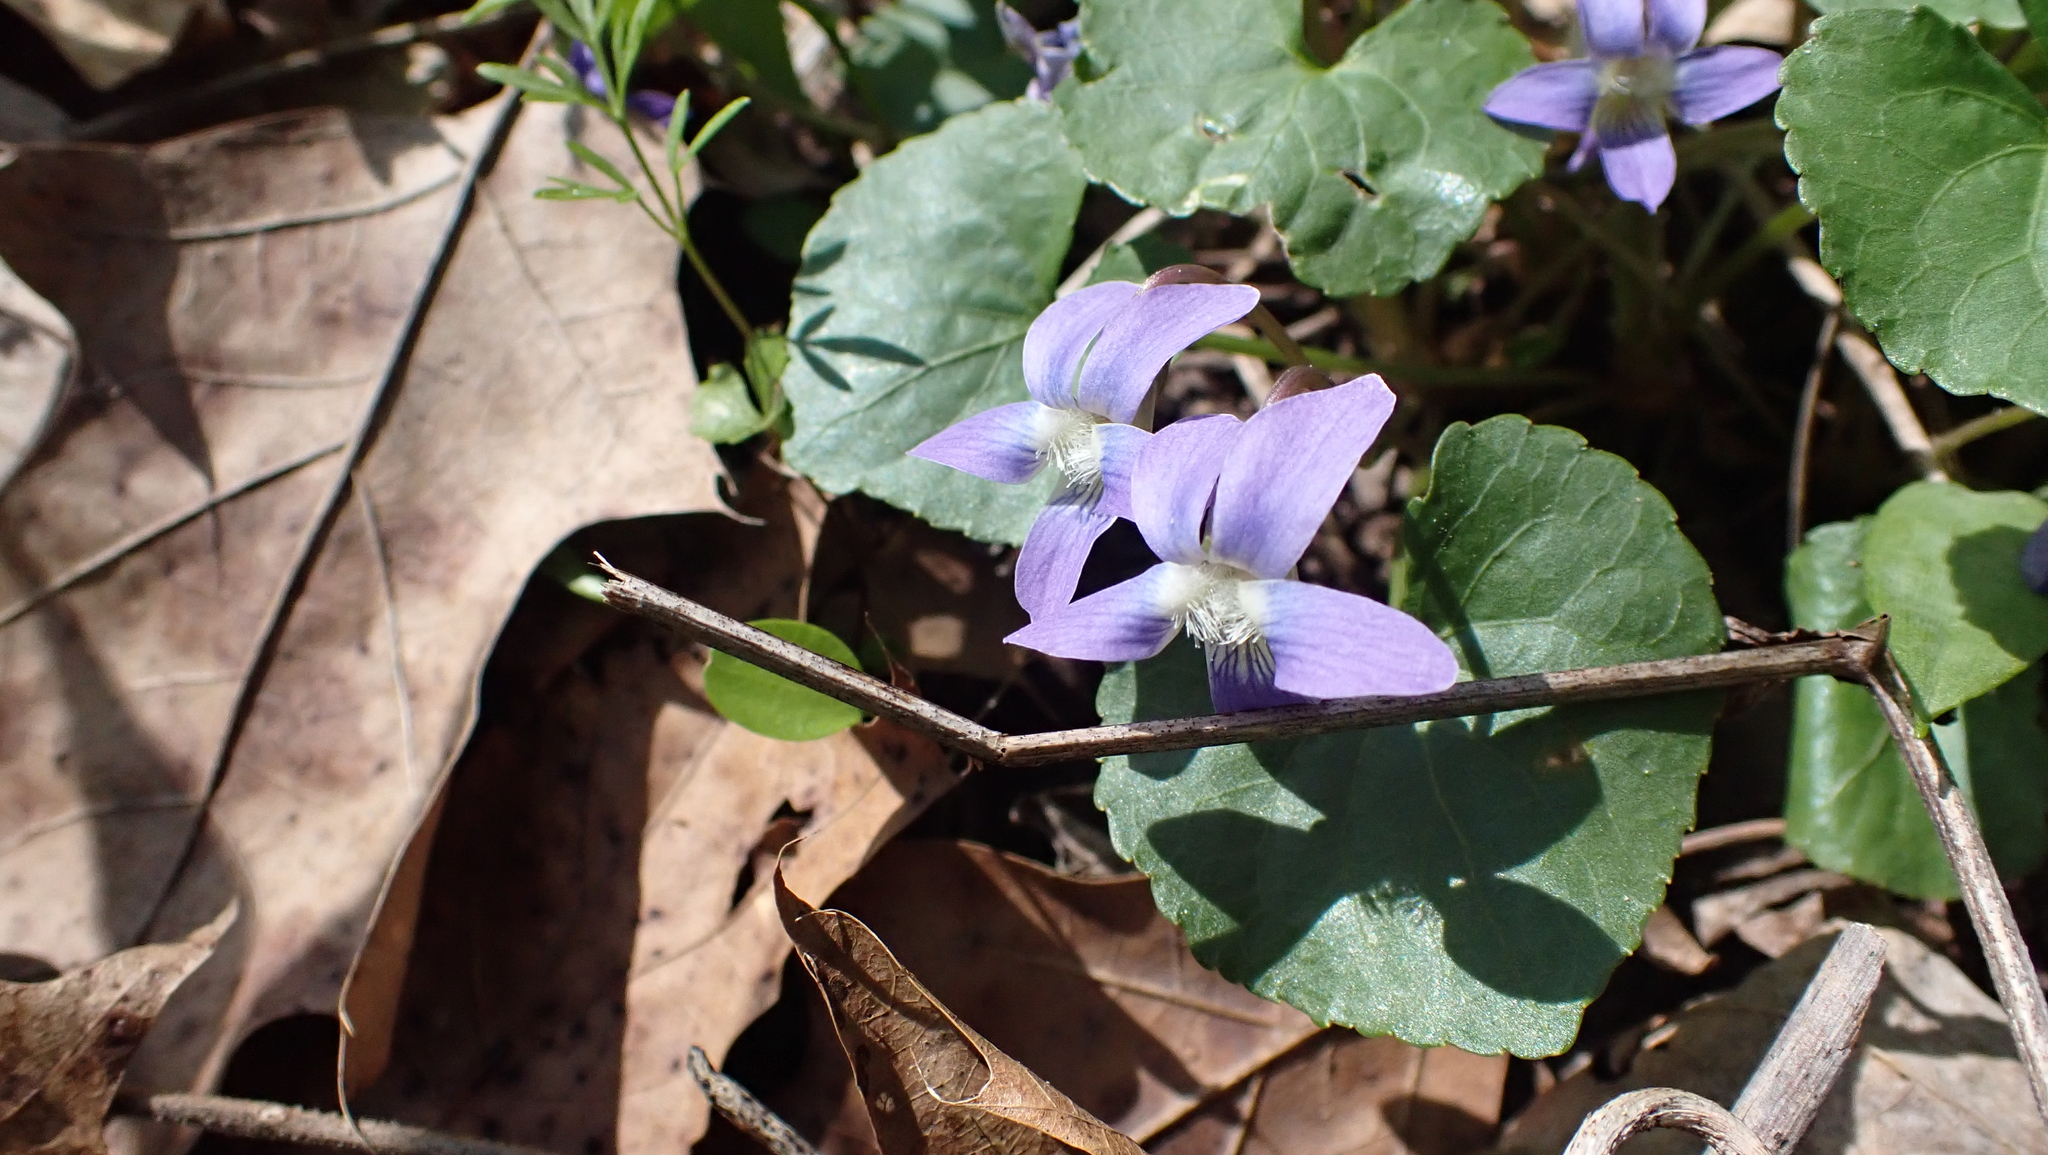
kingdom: Plantae
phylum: Tracheophyta
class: Magnoliopsida
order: Malpighiales
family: Violaceae
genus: Viola
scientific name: Viola sororia
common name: Dooryard violet
